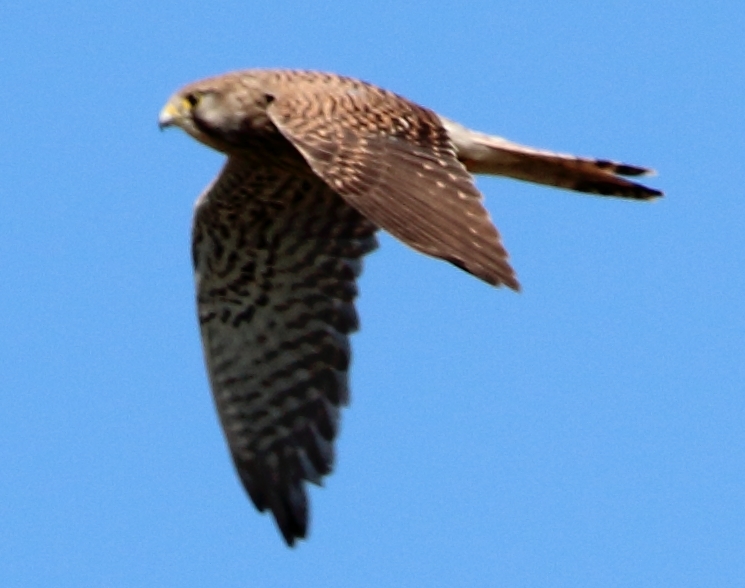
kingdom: Animalia
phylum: Chordata
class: Aves
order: Falconiformes
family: Falconidae
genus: Falco
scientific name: Falco tinnunculus
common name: Common kestrel
